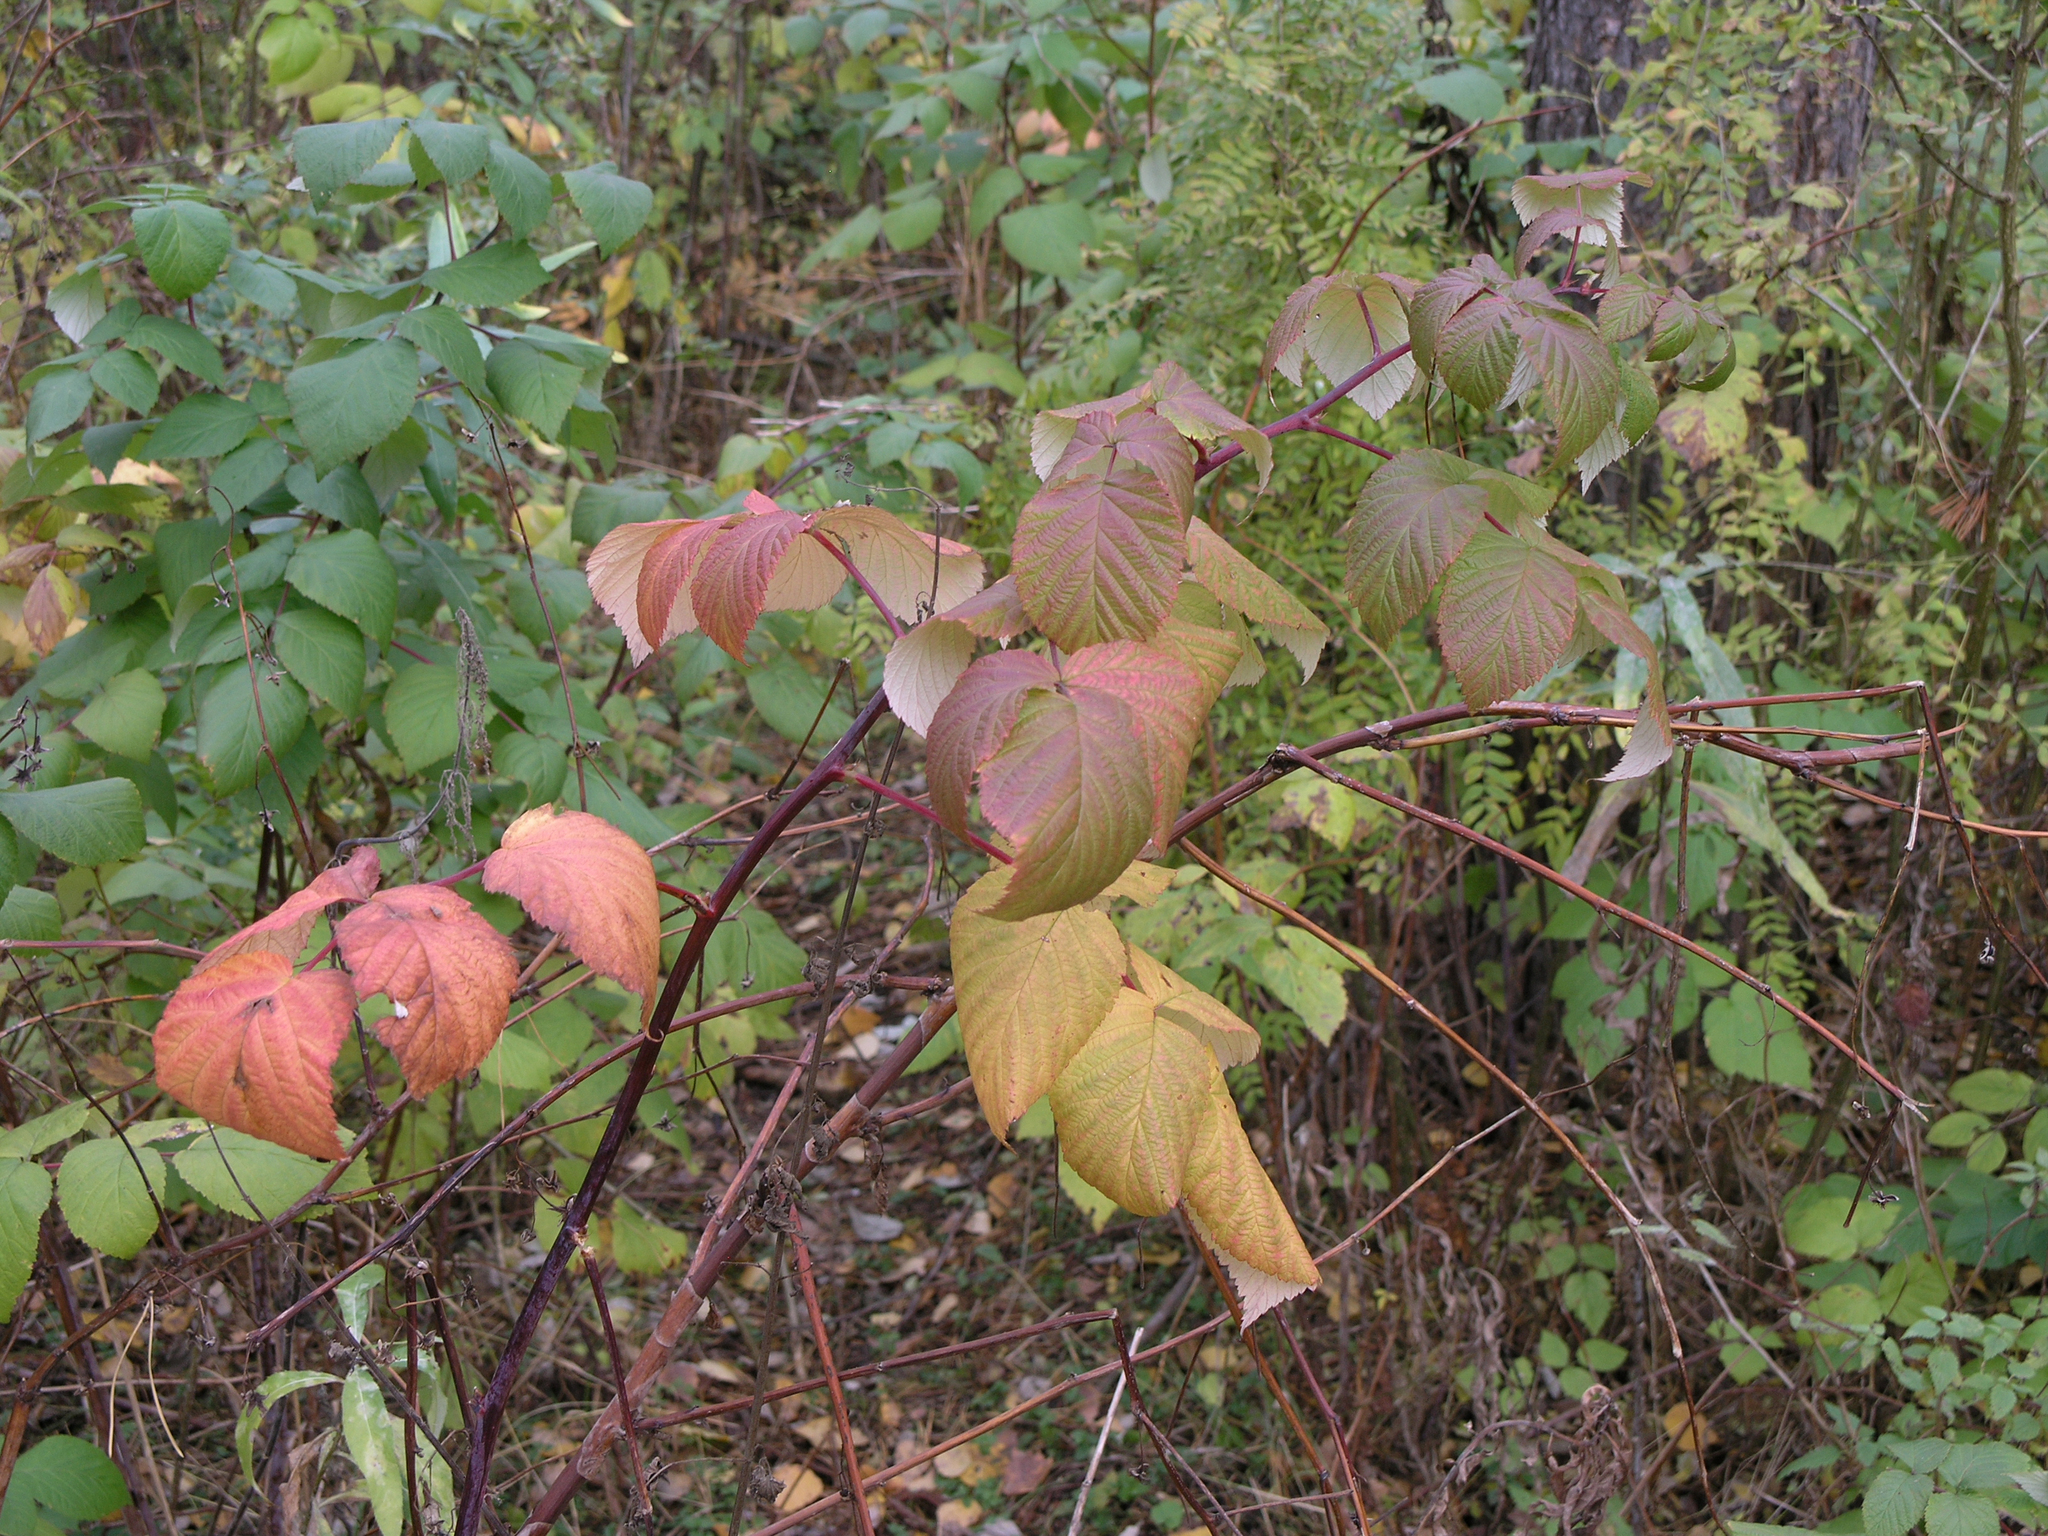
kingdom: Plantae
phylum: Tracheophyta
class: Magnoliopsida
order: Rosales
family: Rosaceae
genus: Rubus
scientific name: Rubus idaeus
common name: Raspberry
